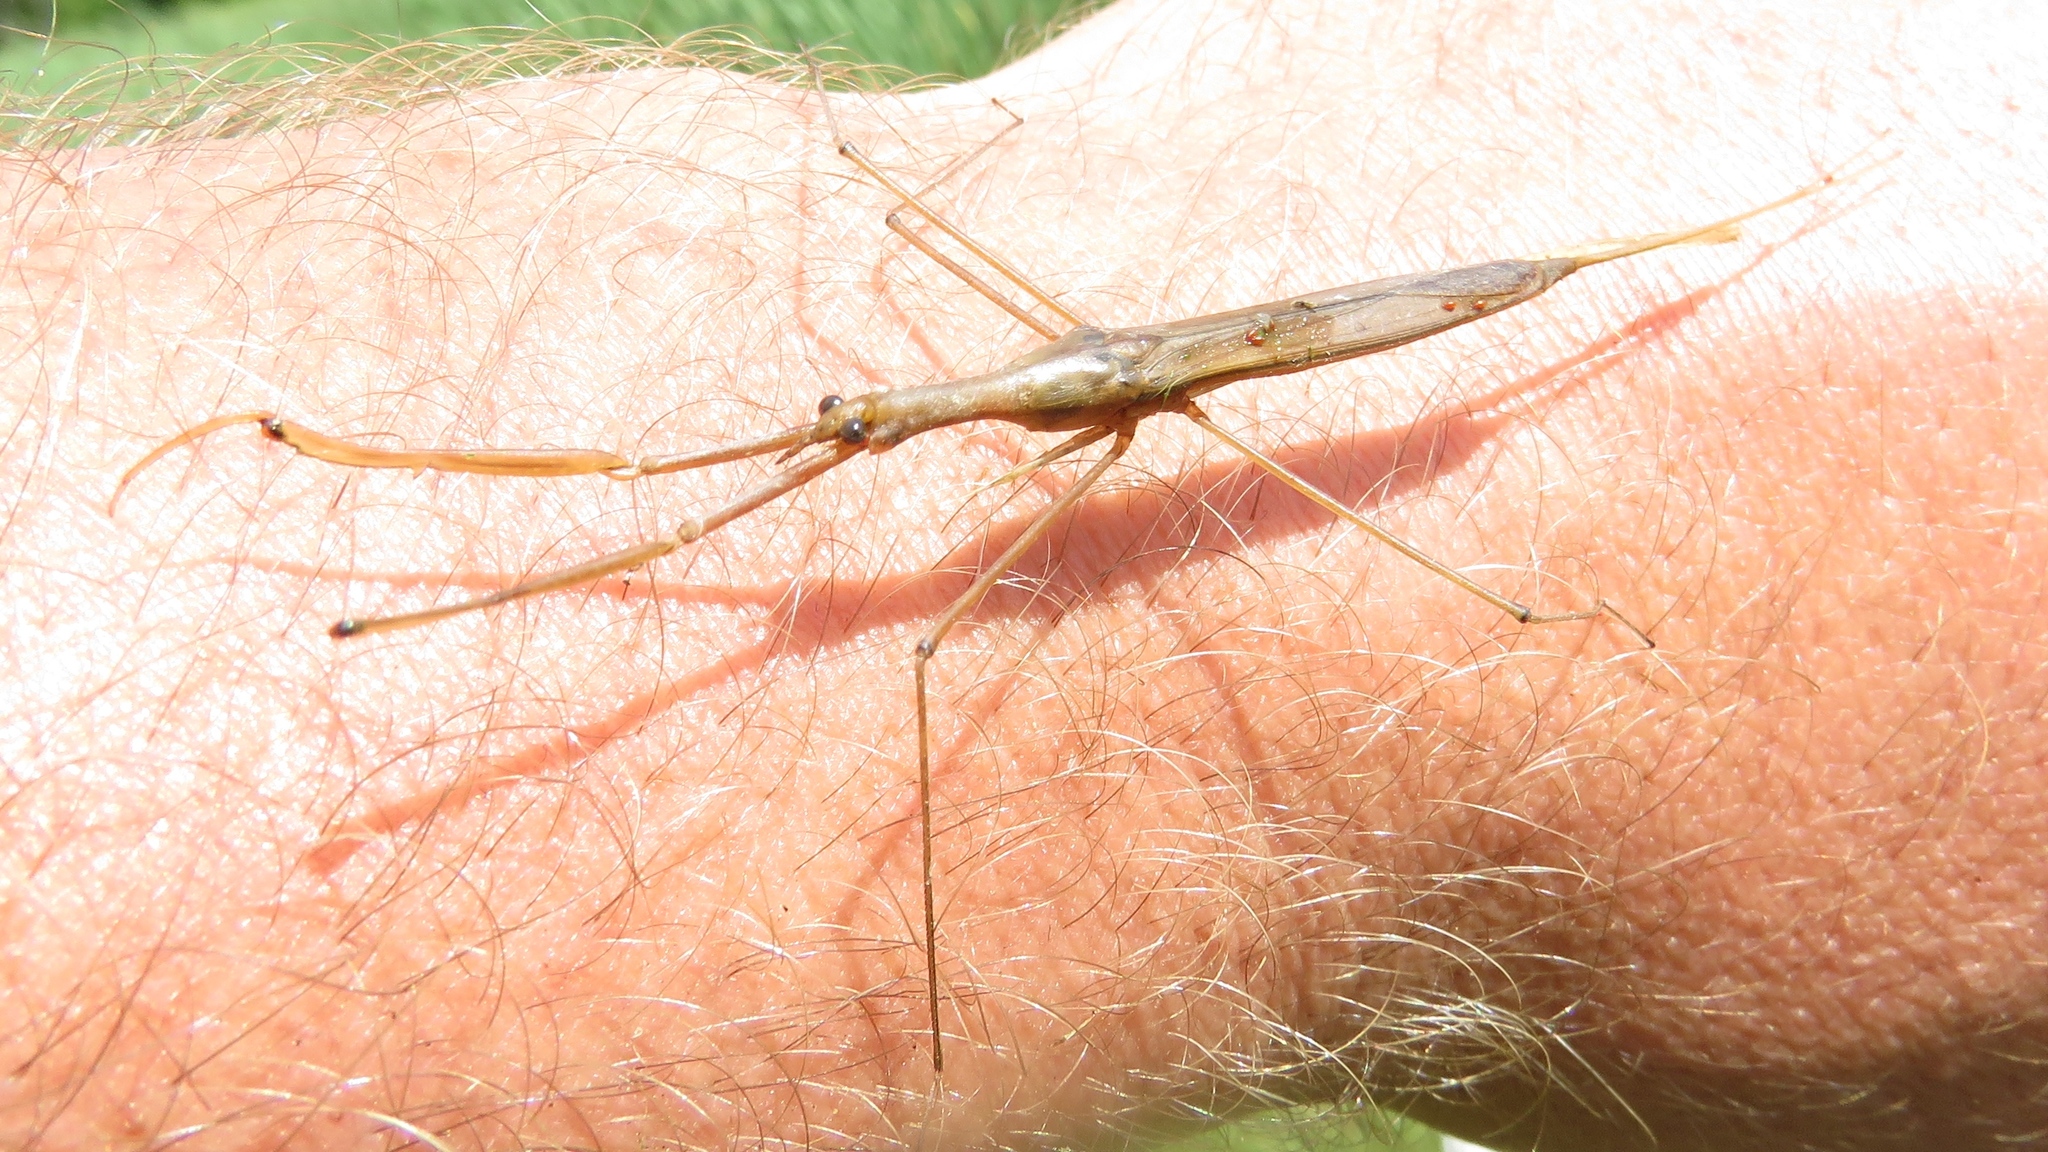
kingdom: Animalia
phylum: Arthropoda
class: Insecta
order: Hemiptera
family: Nepidae
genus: Ranatra
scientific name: Ranatra fusca
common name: Brown waterscorpion
